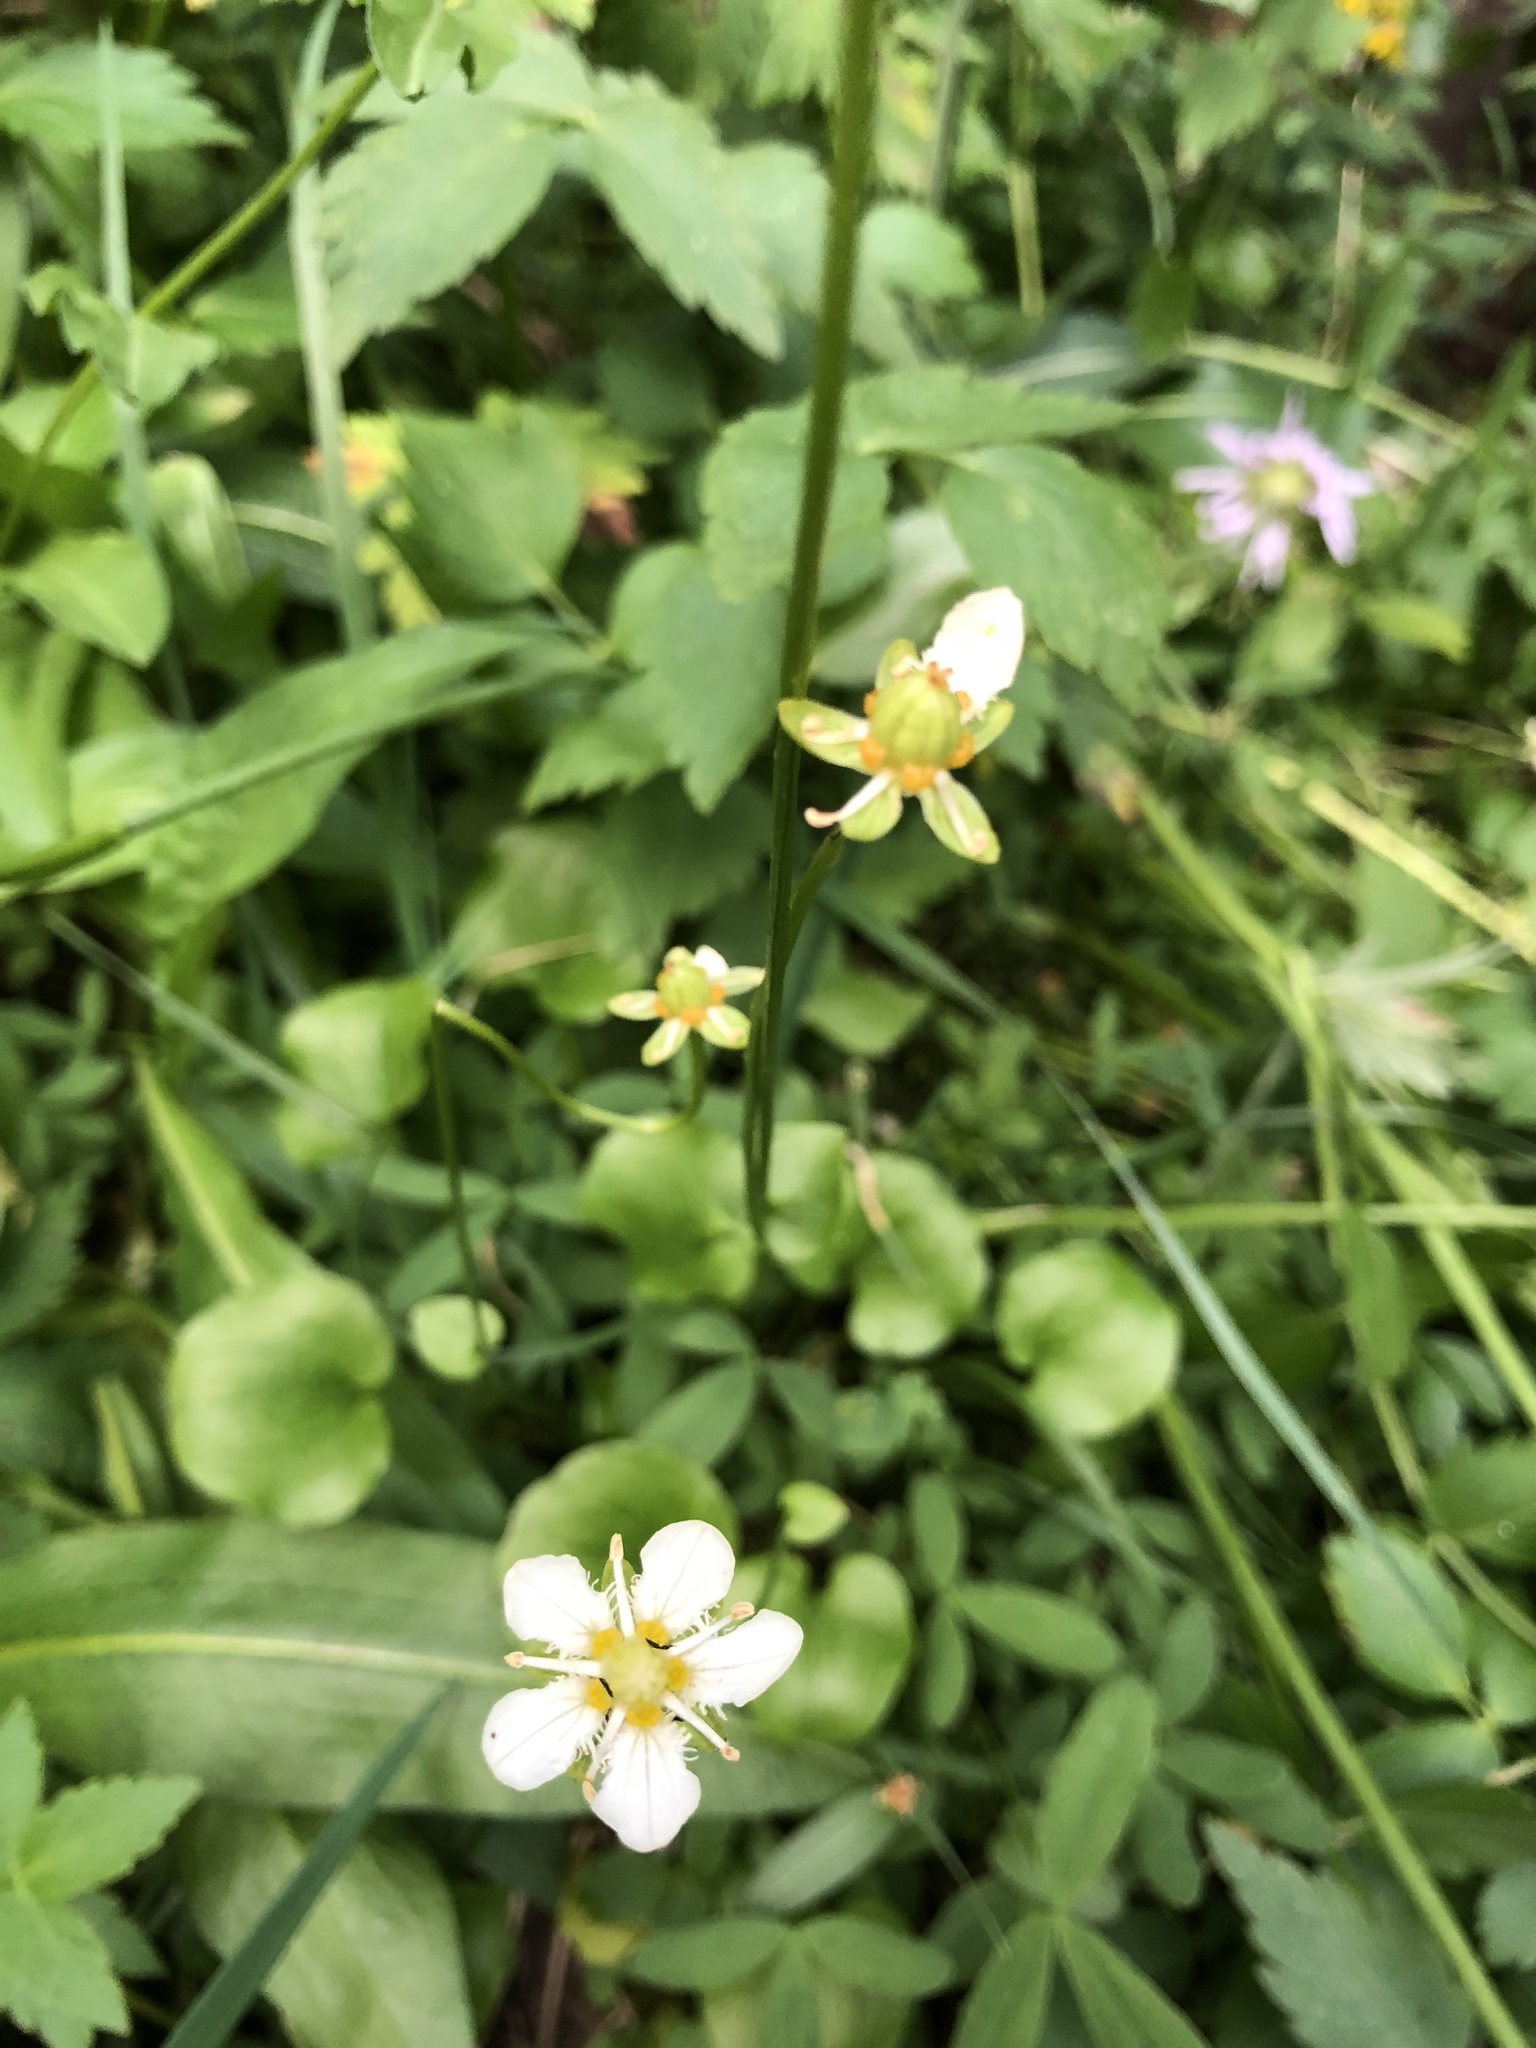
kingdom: Plantae
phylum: Tracheophyta
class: Magnoliopsida
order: Celastrales
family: Parnassiaceae
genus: Parnassia
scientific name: Parnassia fimbriata
